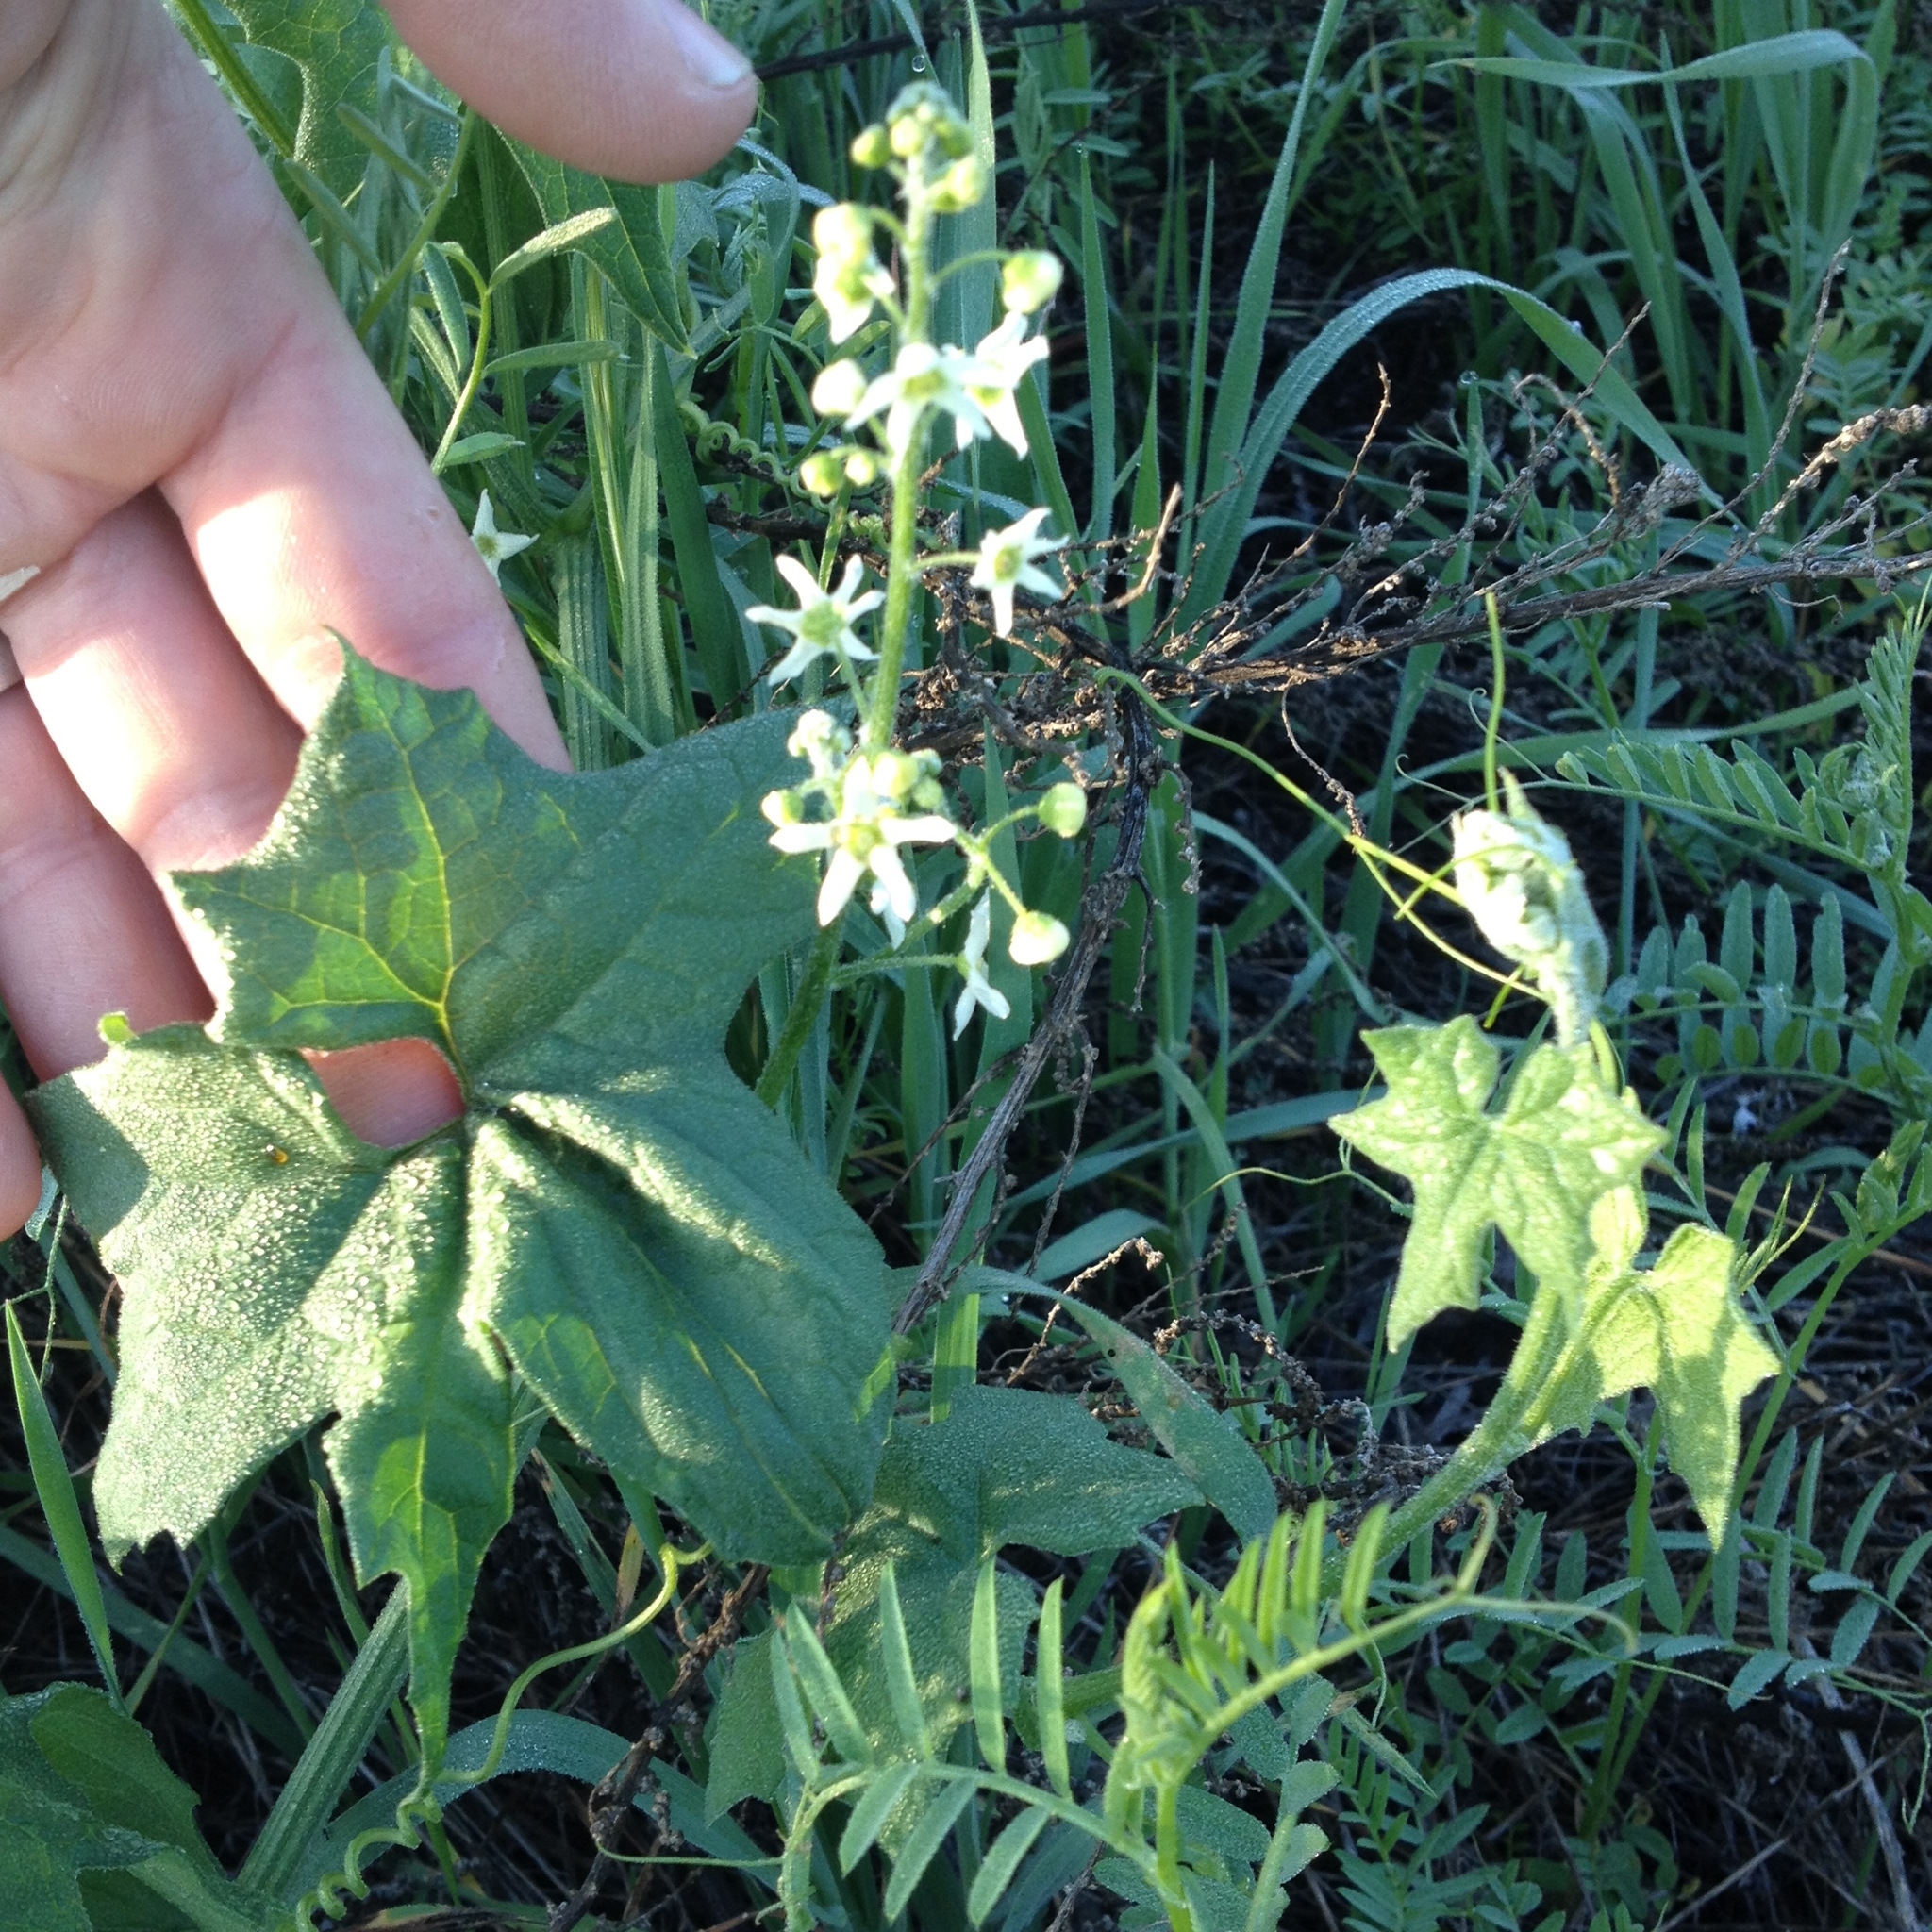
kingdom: Plantae
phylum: Tracheophyta
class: Magnoliopsida
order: Cucurbitales
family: Cucurbitaceae
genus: Marah
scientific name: Marah fabacea
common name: California manroot
